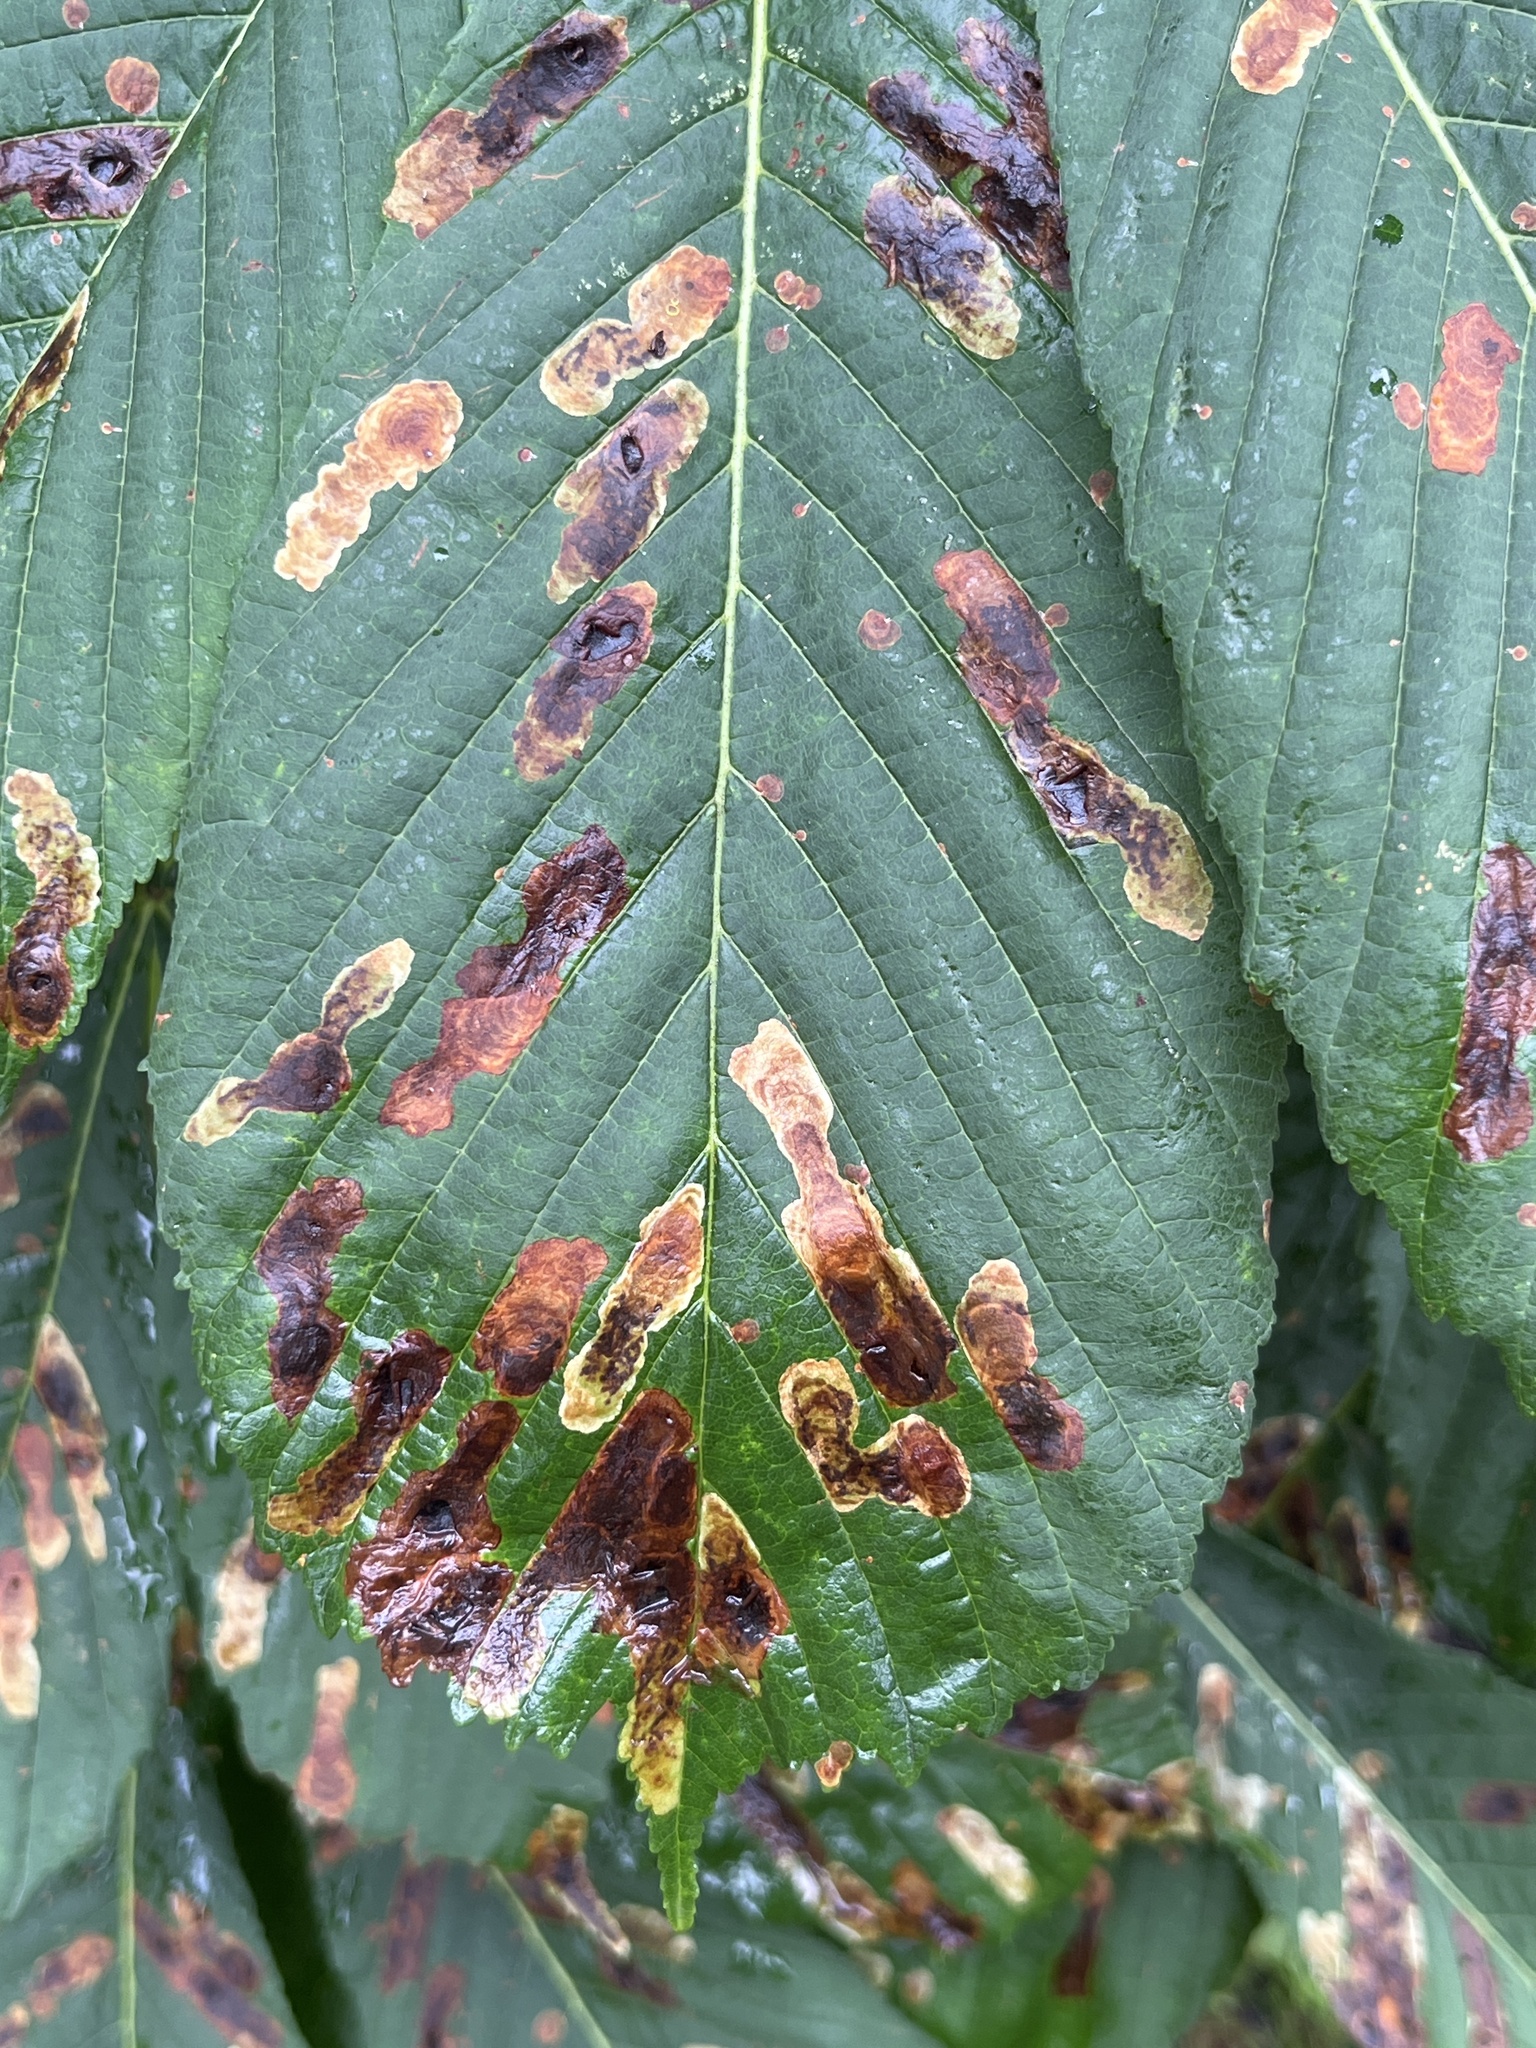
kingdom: Animalia
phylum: Arthropoda
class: Insecta
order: Lepidoptera
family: Gracillariidae
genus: Cameraria
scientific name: Cameraria ohridella
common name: Horse-chestnut leaf-miner
